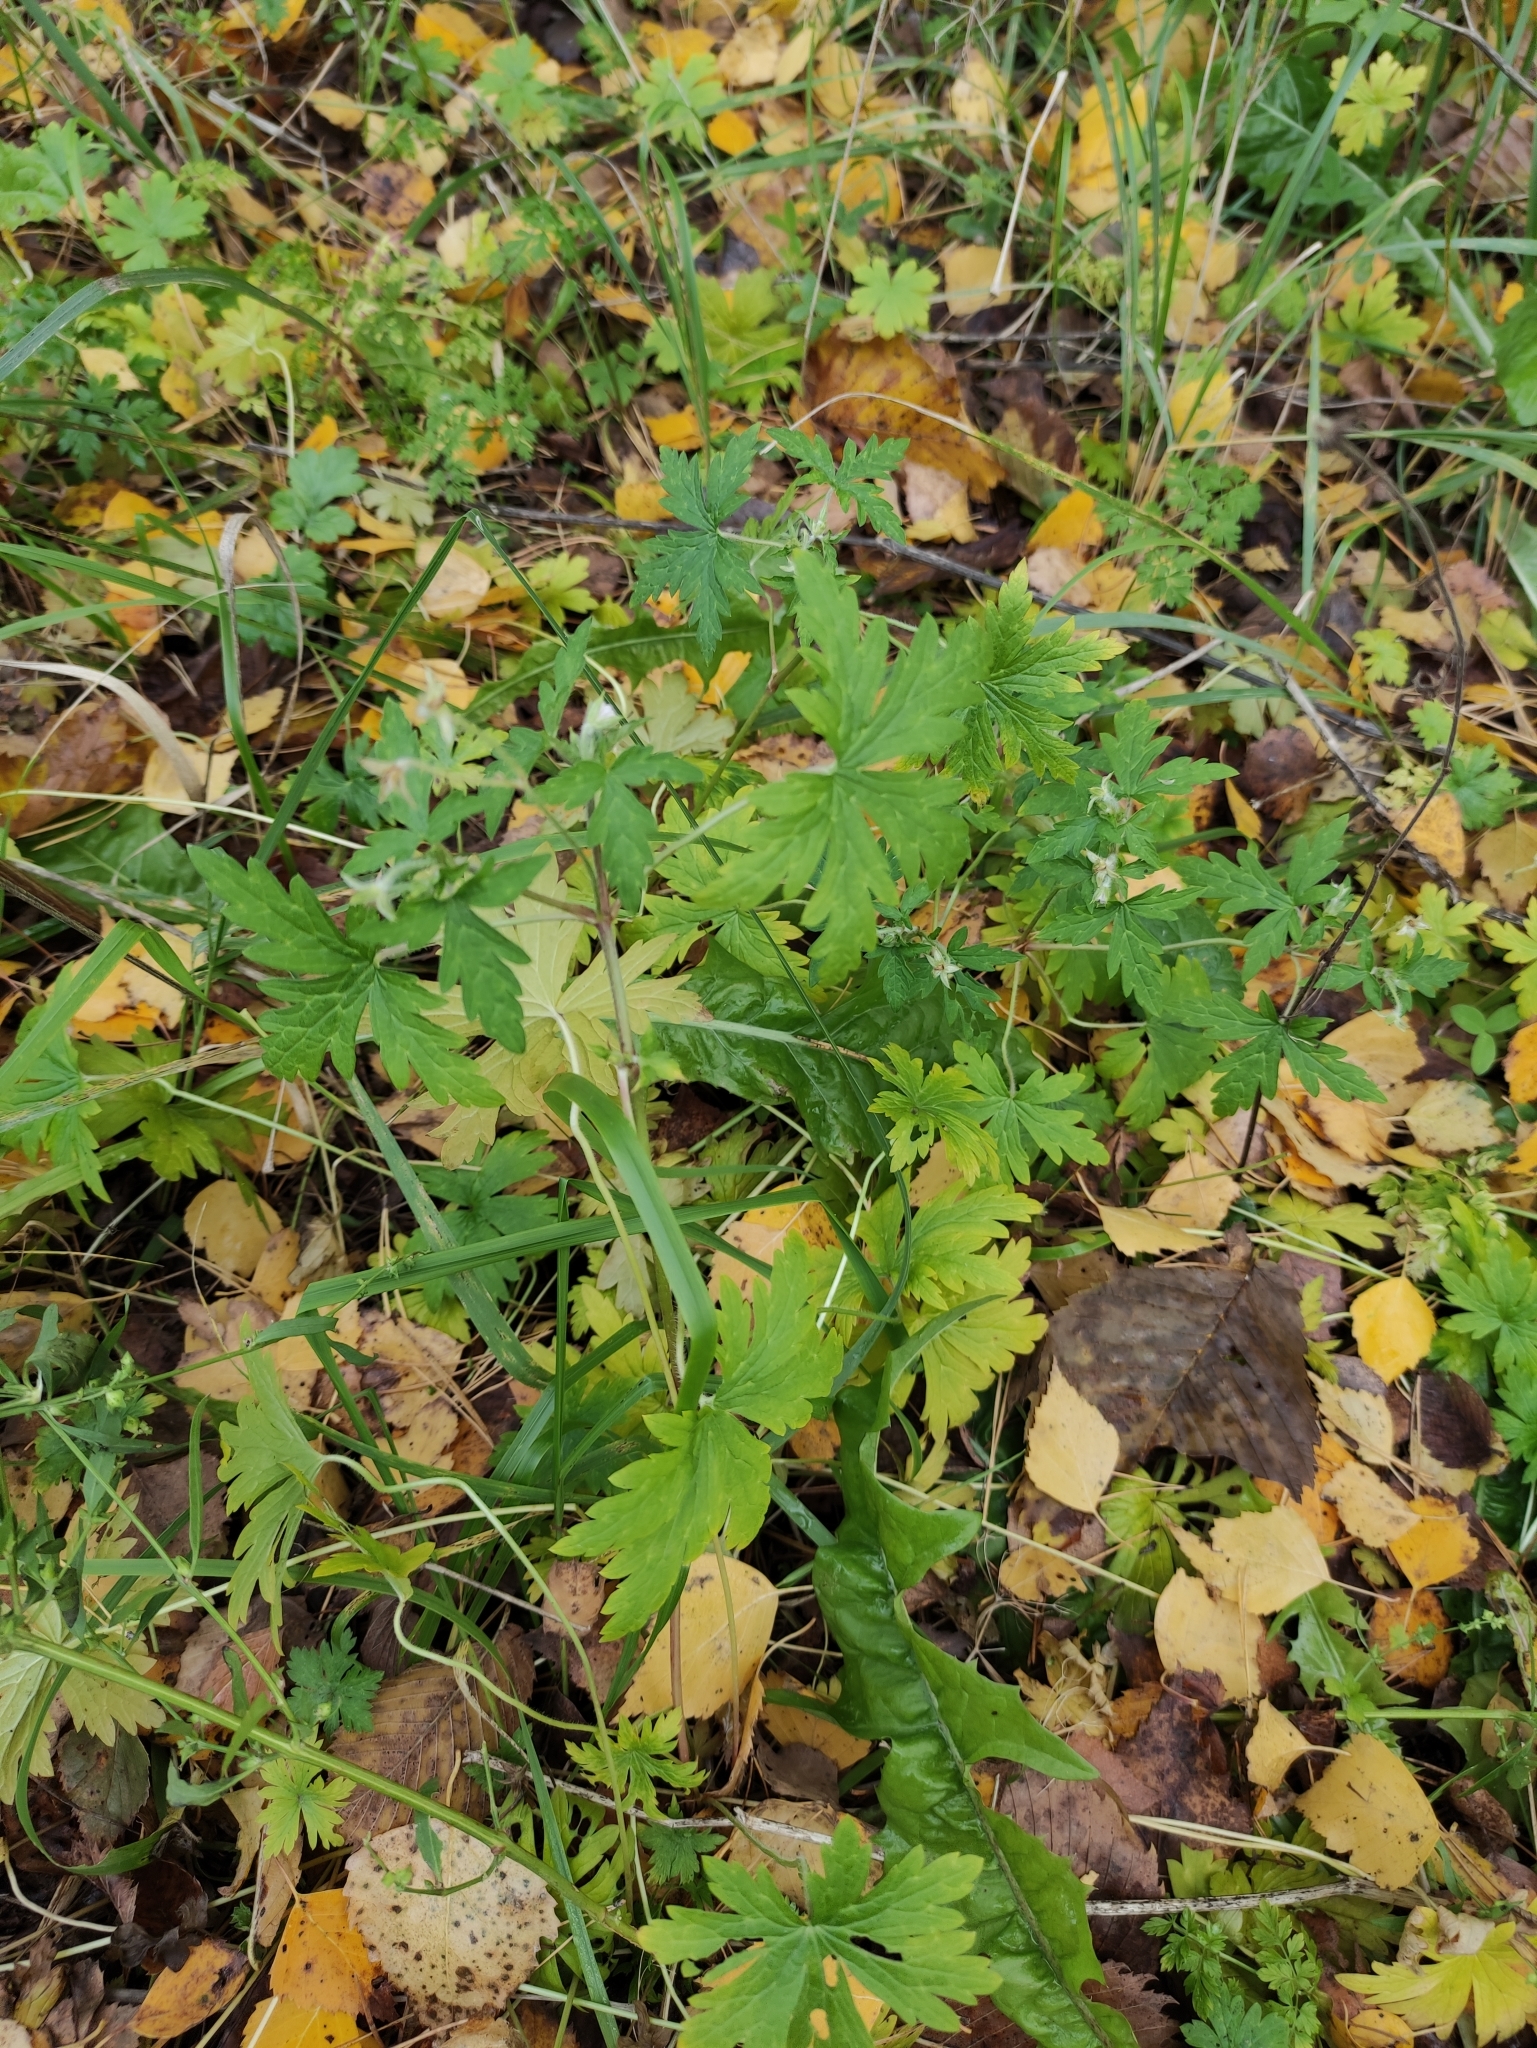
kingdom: Plantae
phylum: Tracheophyta
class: Magnoliopsida
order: Geraniales
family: Geraniaceae
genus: Geranium
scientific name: Geranium sibiricum
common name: Siberian crane's-bill
